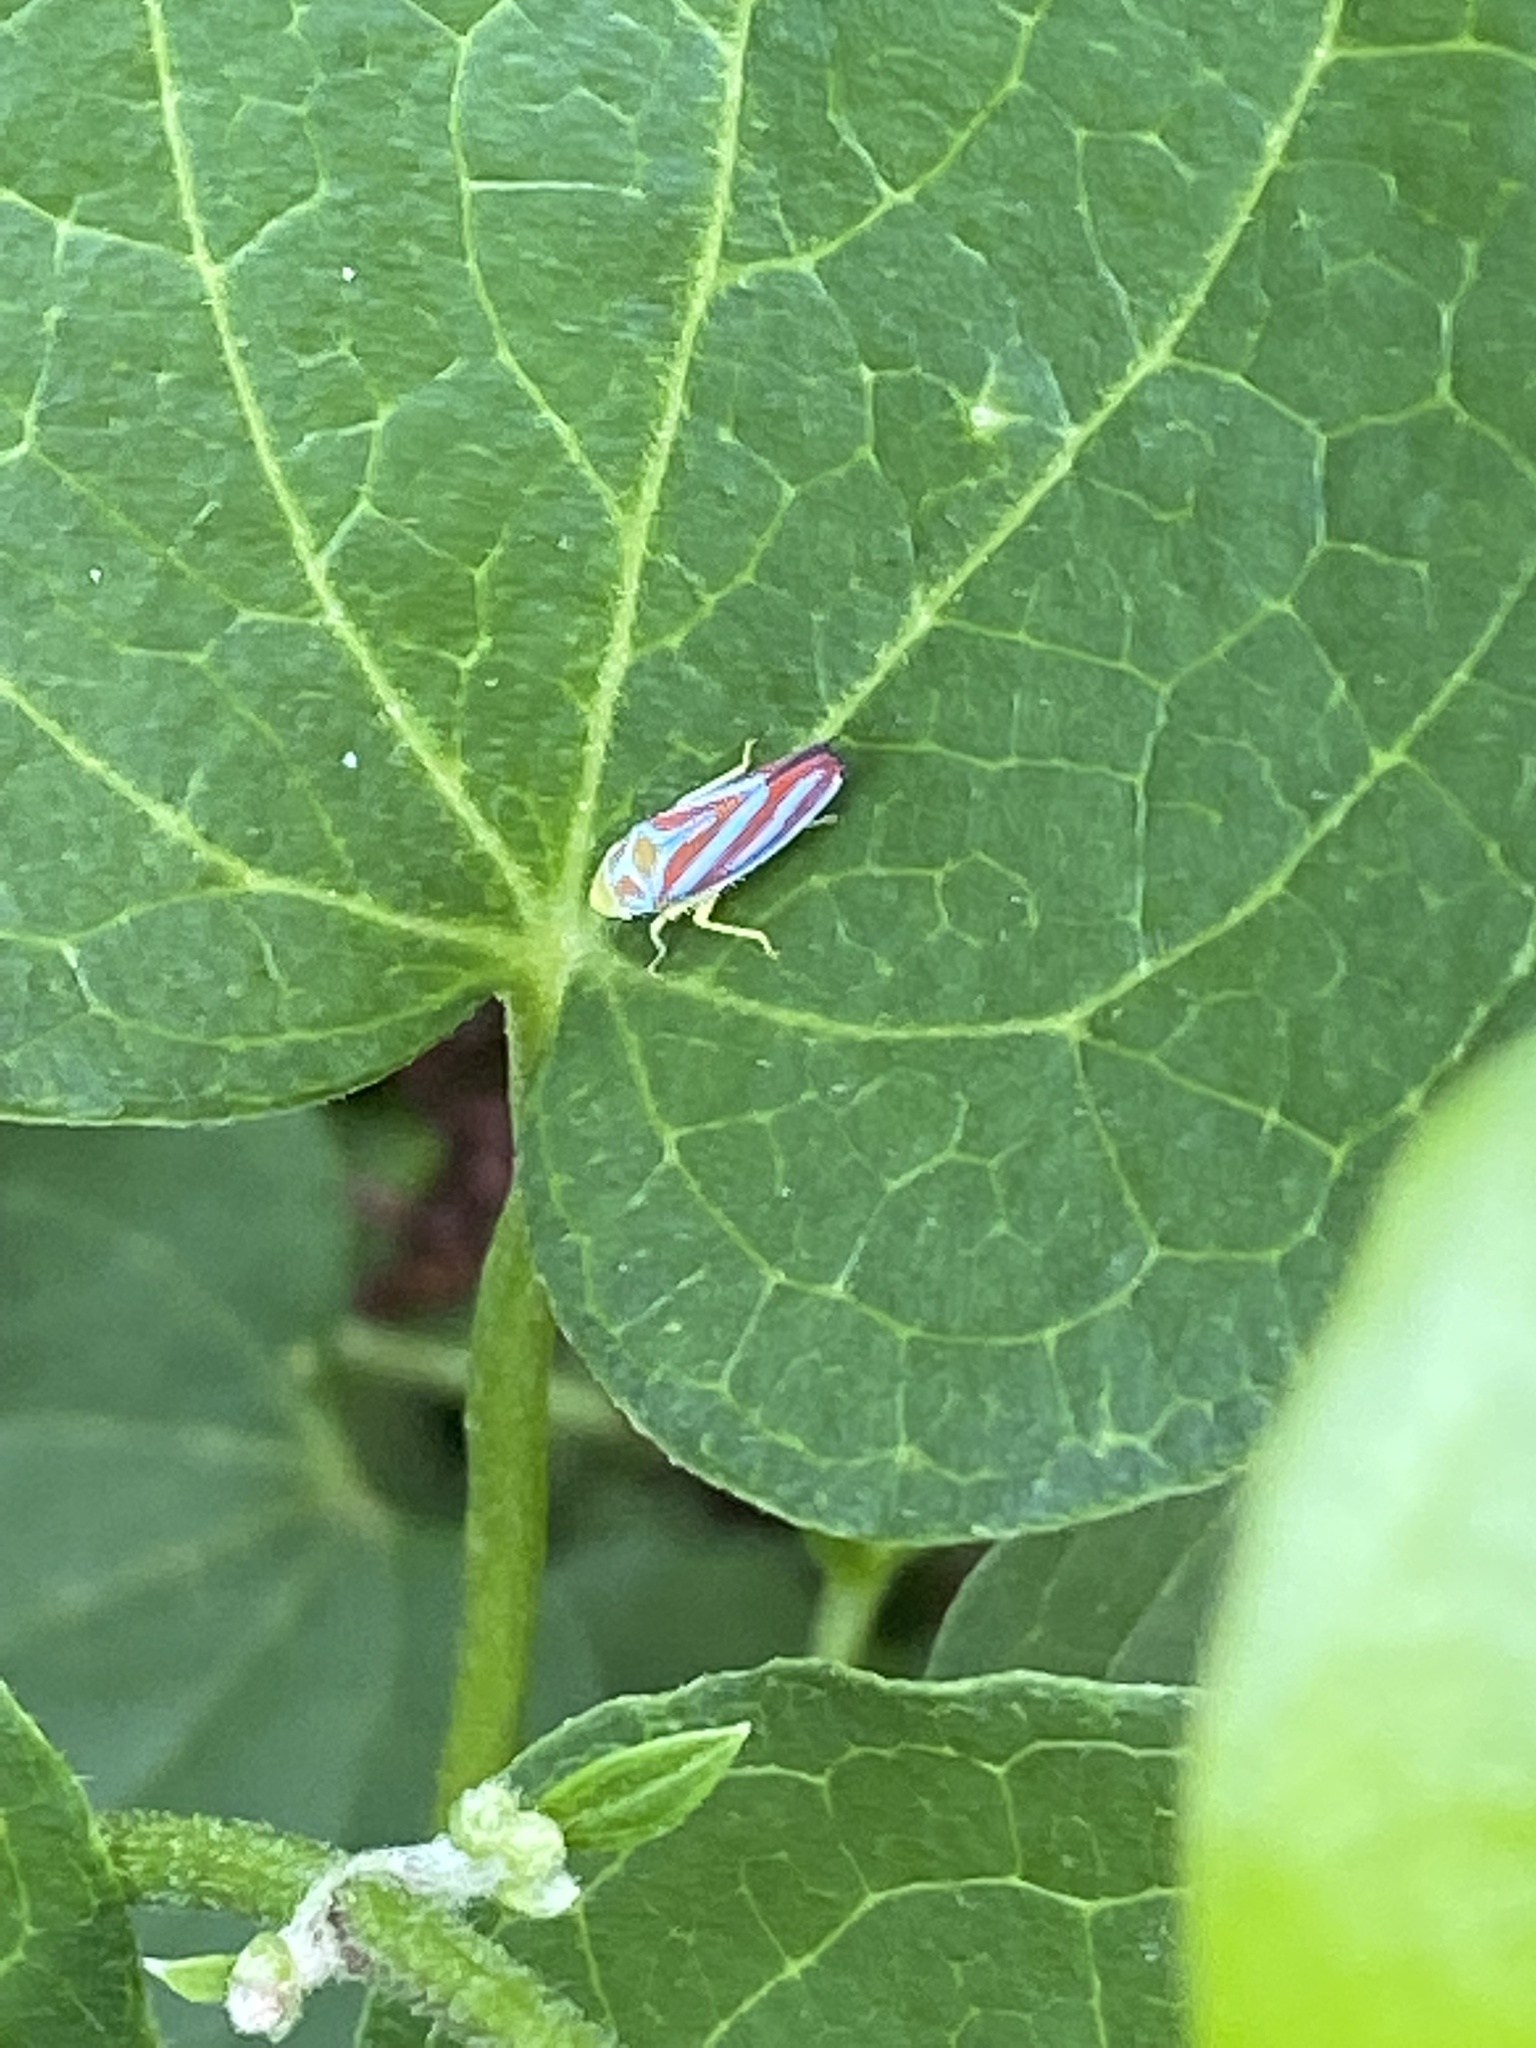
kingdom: Animalia
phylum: Arthropoda
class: Insecta
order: Hemiptera
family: Cicadellidae
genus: Graphocephala
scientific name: Graphocephala coccinea
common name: Candy-striped leafhopper
